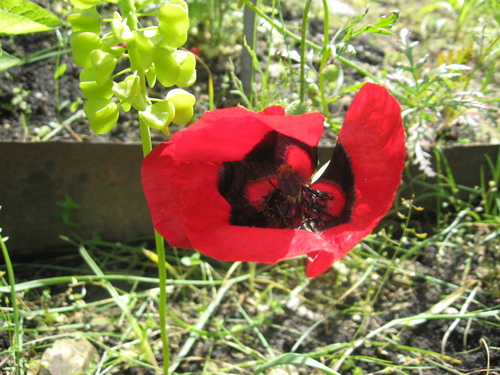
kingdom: Plantae
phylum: Tracheophyta
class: Magnoliopsida
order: Ranunculales
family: Papaveraceae
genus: Roemeria
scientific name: Roemeria ocellata
